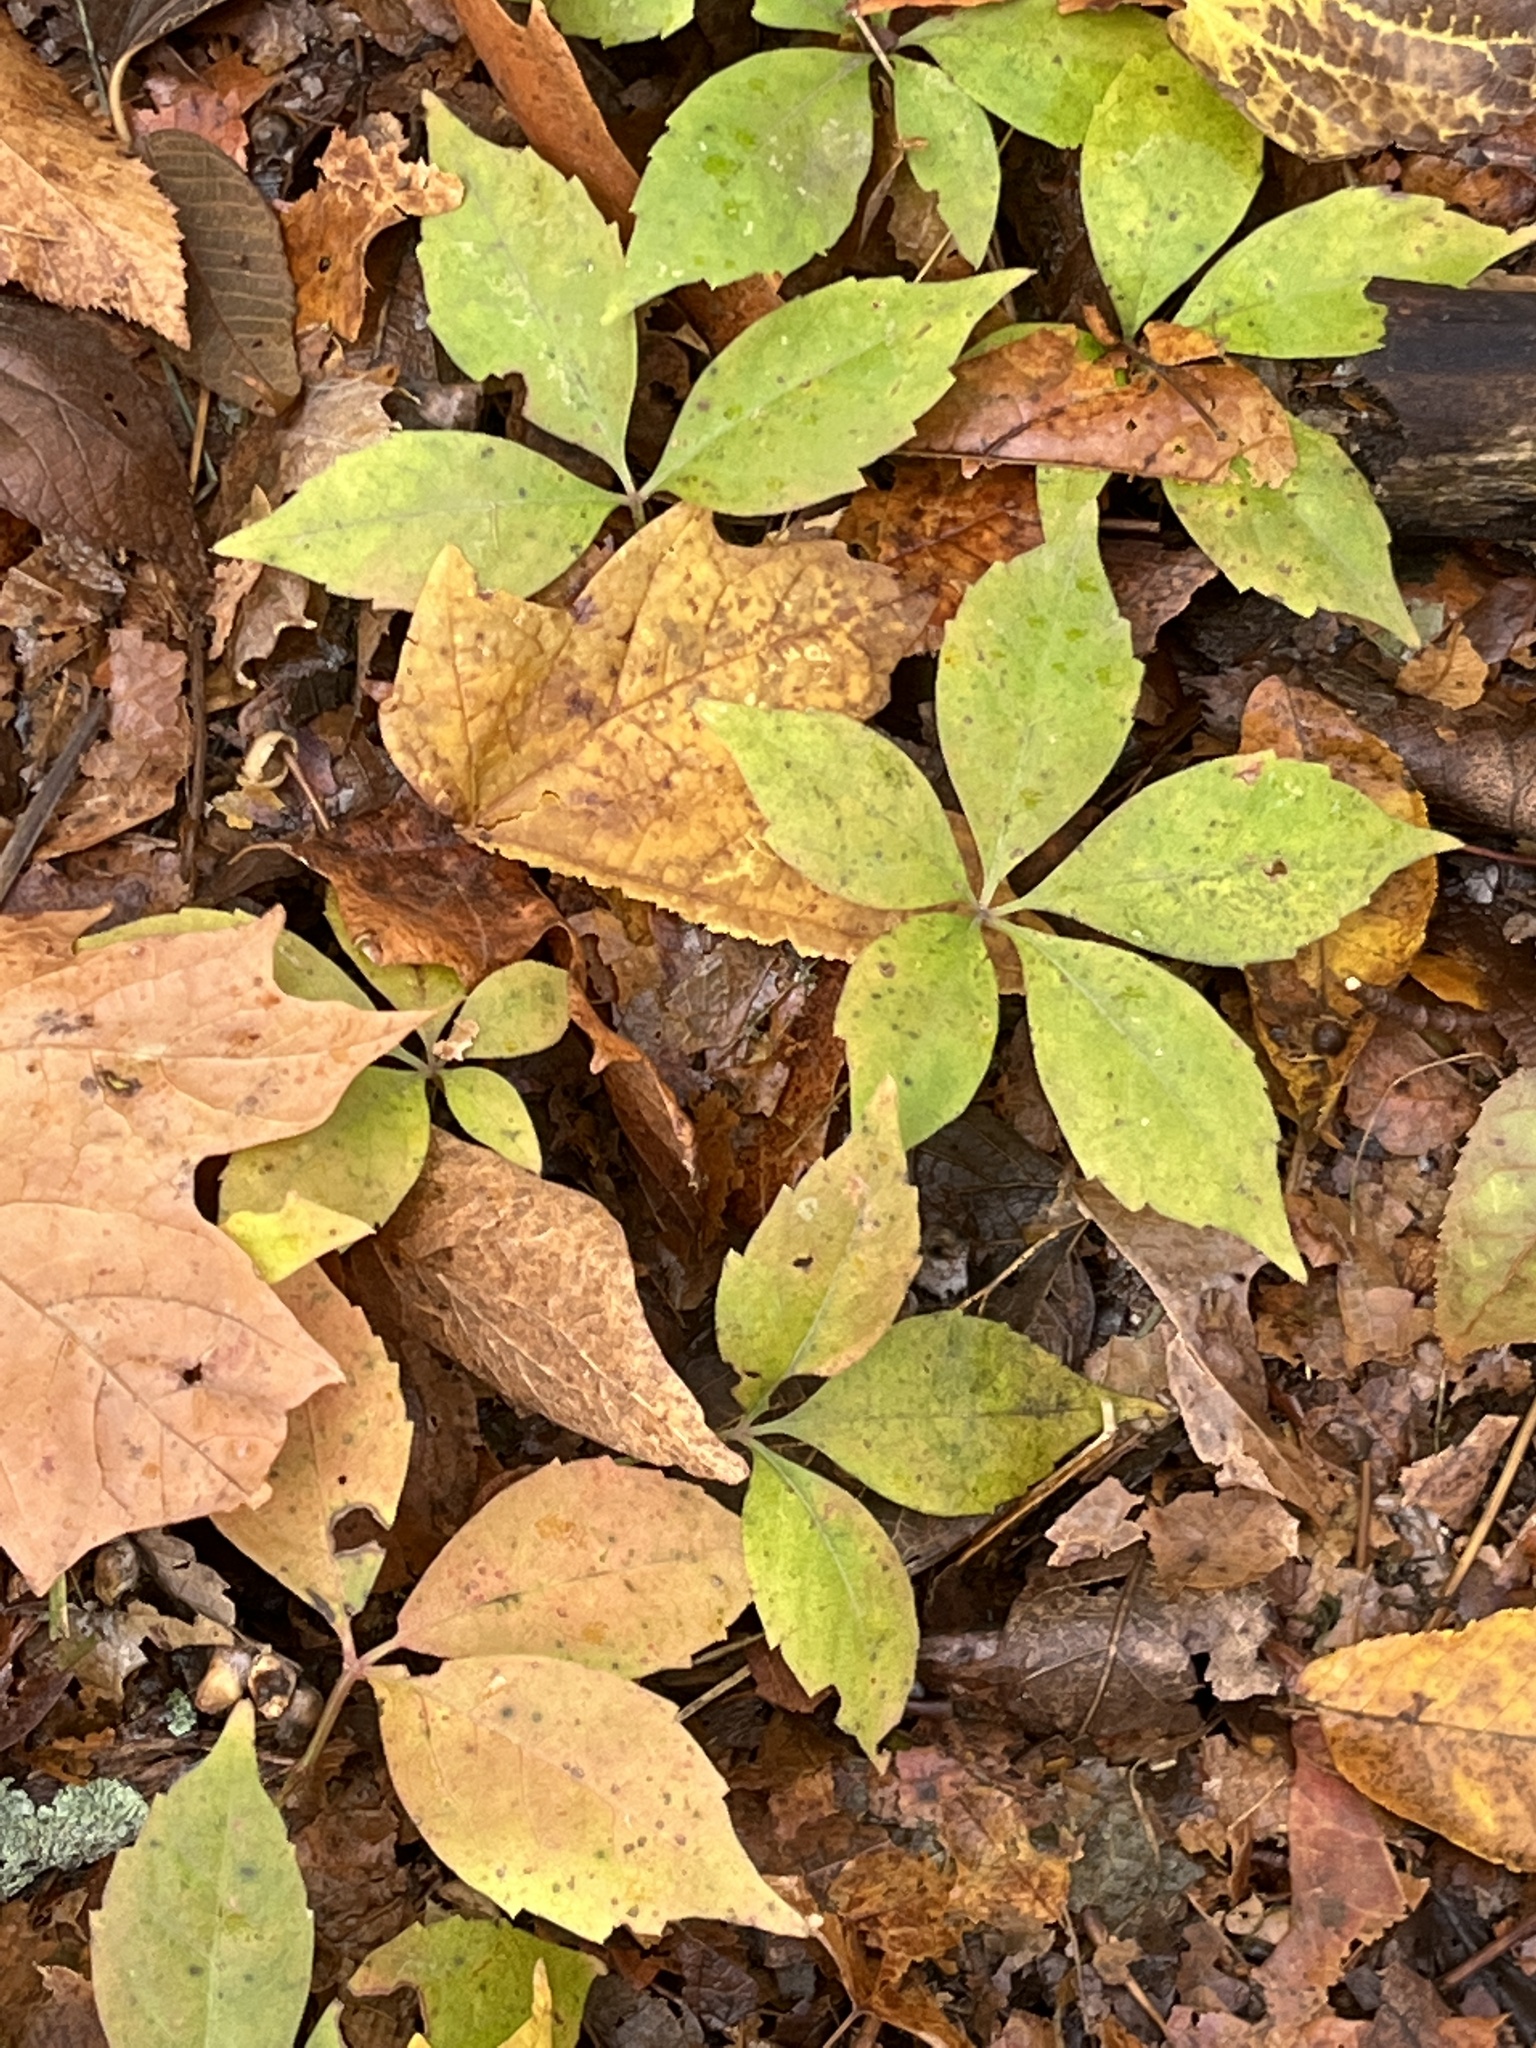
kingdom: Plantae
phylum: Tracheophyta
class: Magnoliopsida
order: Vitales
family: Vitaceae
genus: Parthenocissus
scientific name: Parthenocissus quinquefolia
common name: Virginia-creeper
